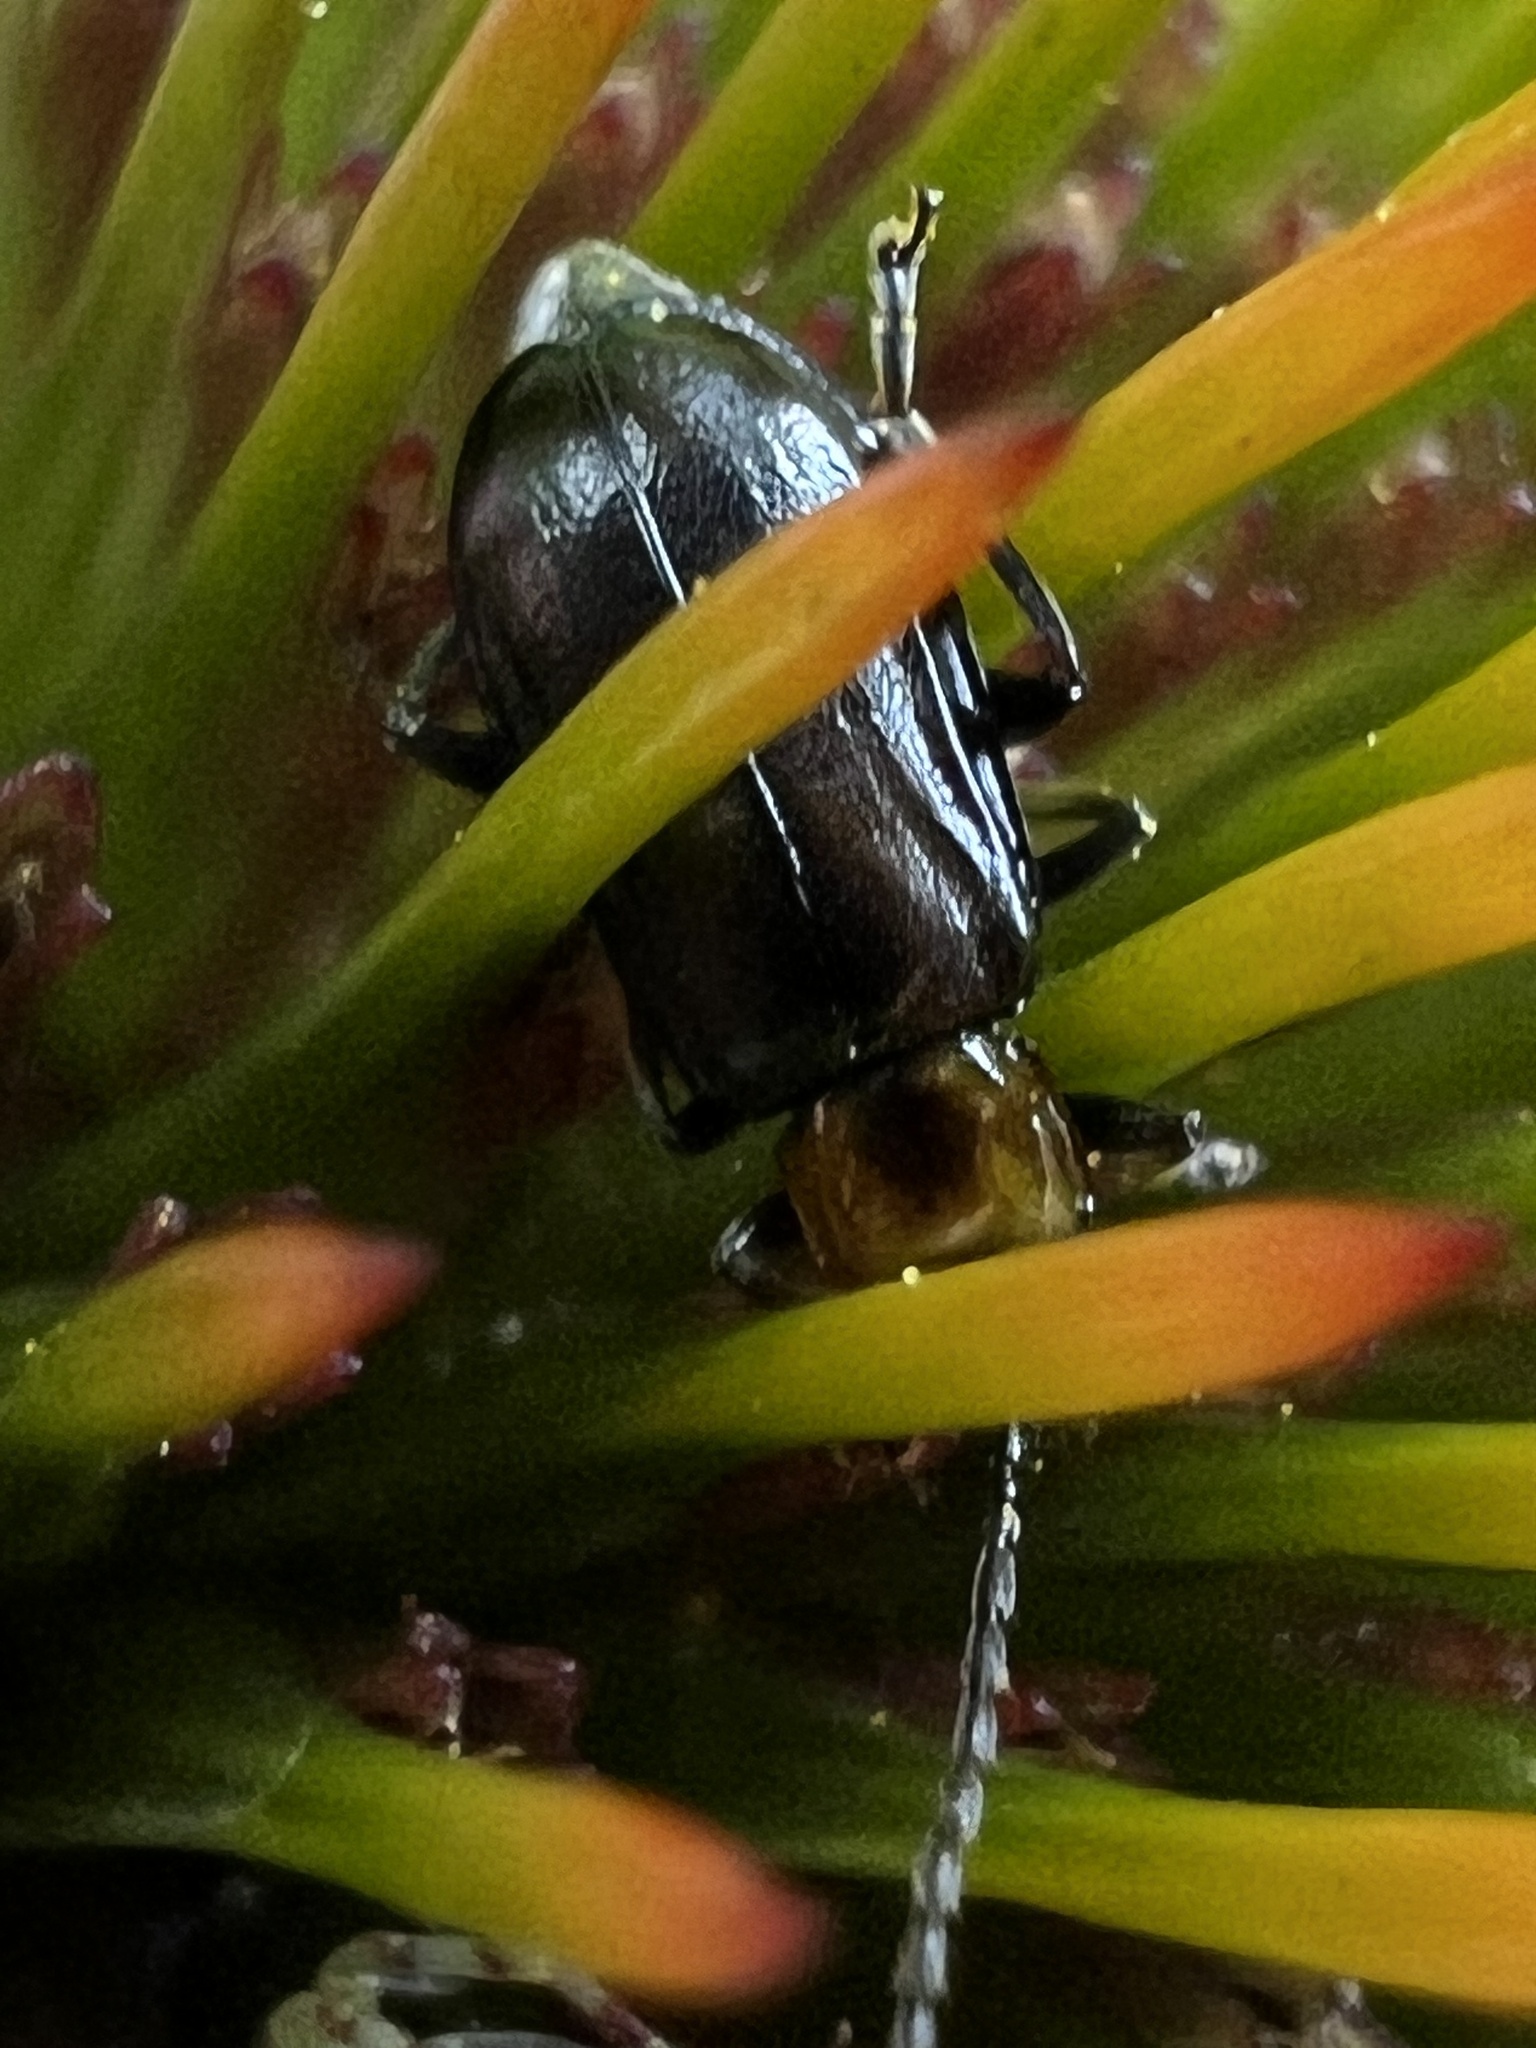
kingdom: Animalia
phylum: Arthropoda
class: Insecta
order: Coleoptera
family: Chrysomelidae
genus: Diabrotica
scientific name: Diabrotica cristata
